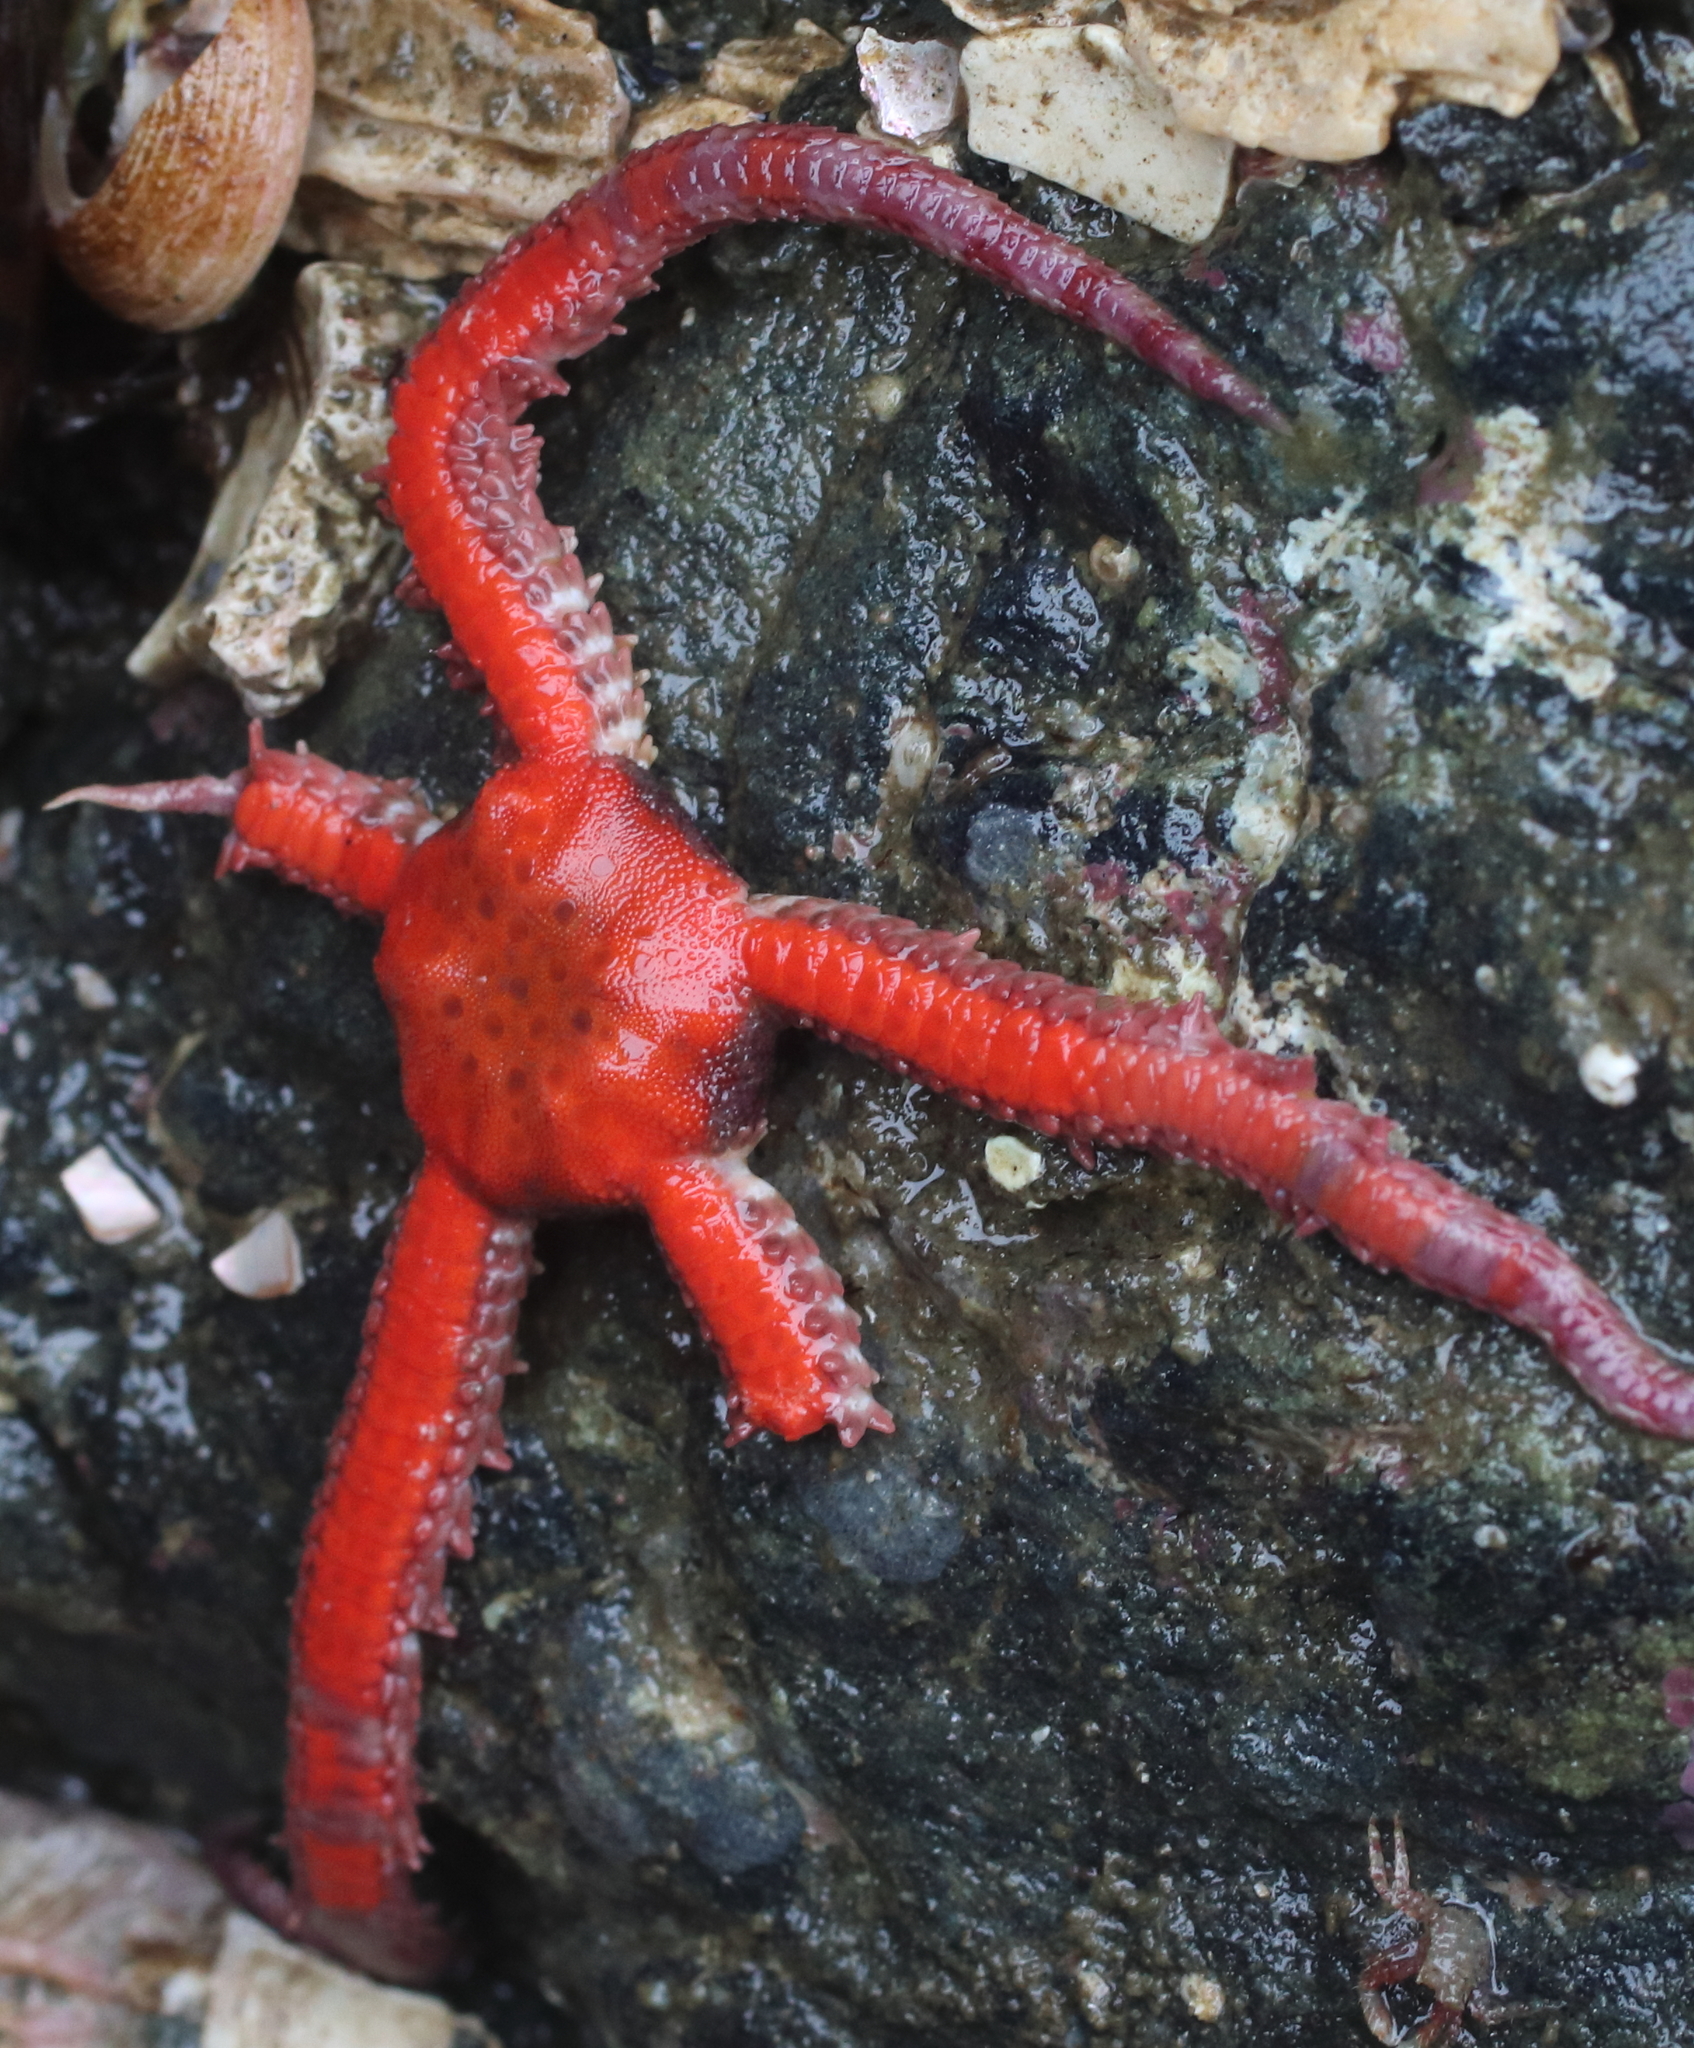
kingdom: Animalia
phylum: Echinodermata
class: Ophiuroidea
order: Amphilepidida
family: Ophiopholidae
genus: Ophiopholis
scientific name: Ophiopholis kennerlyi
